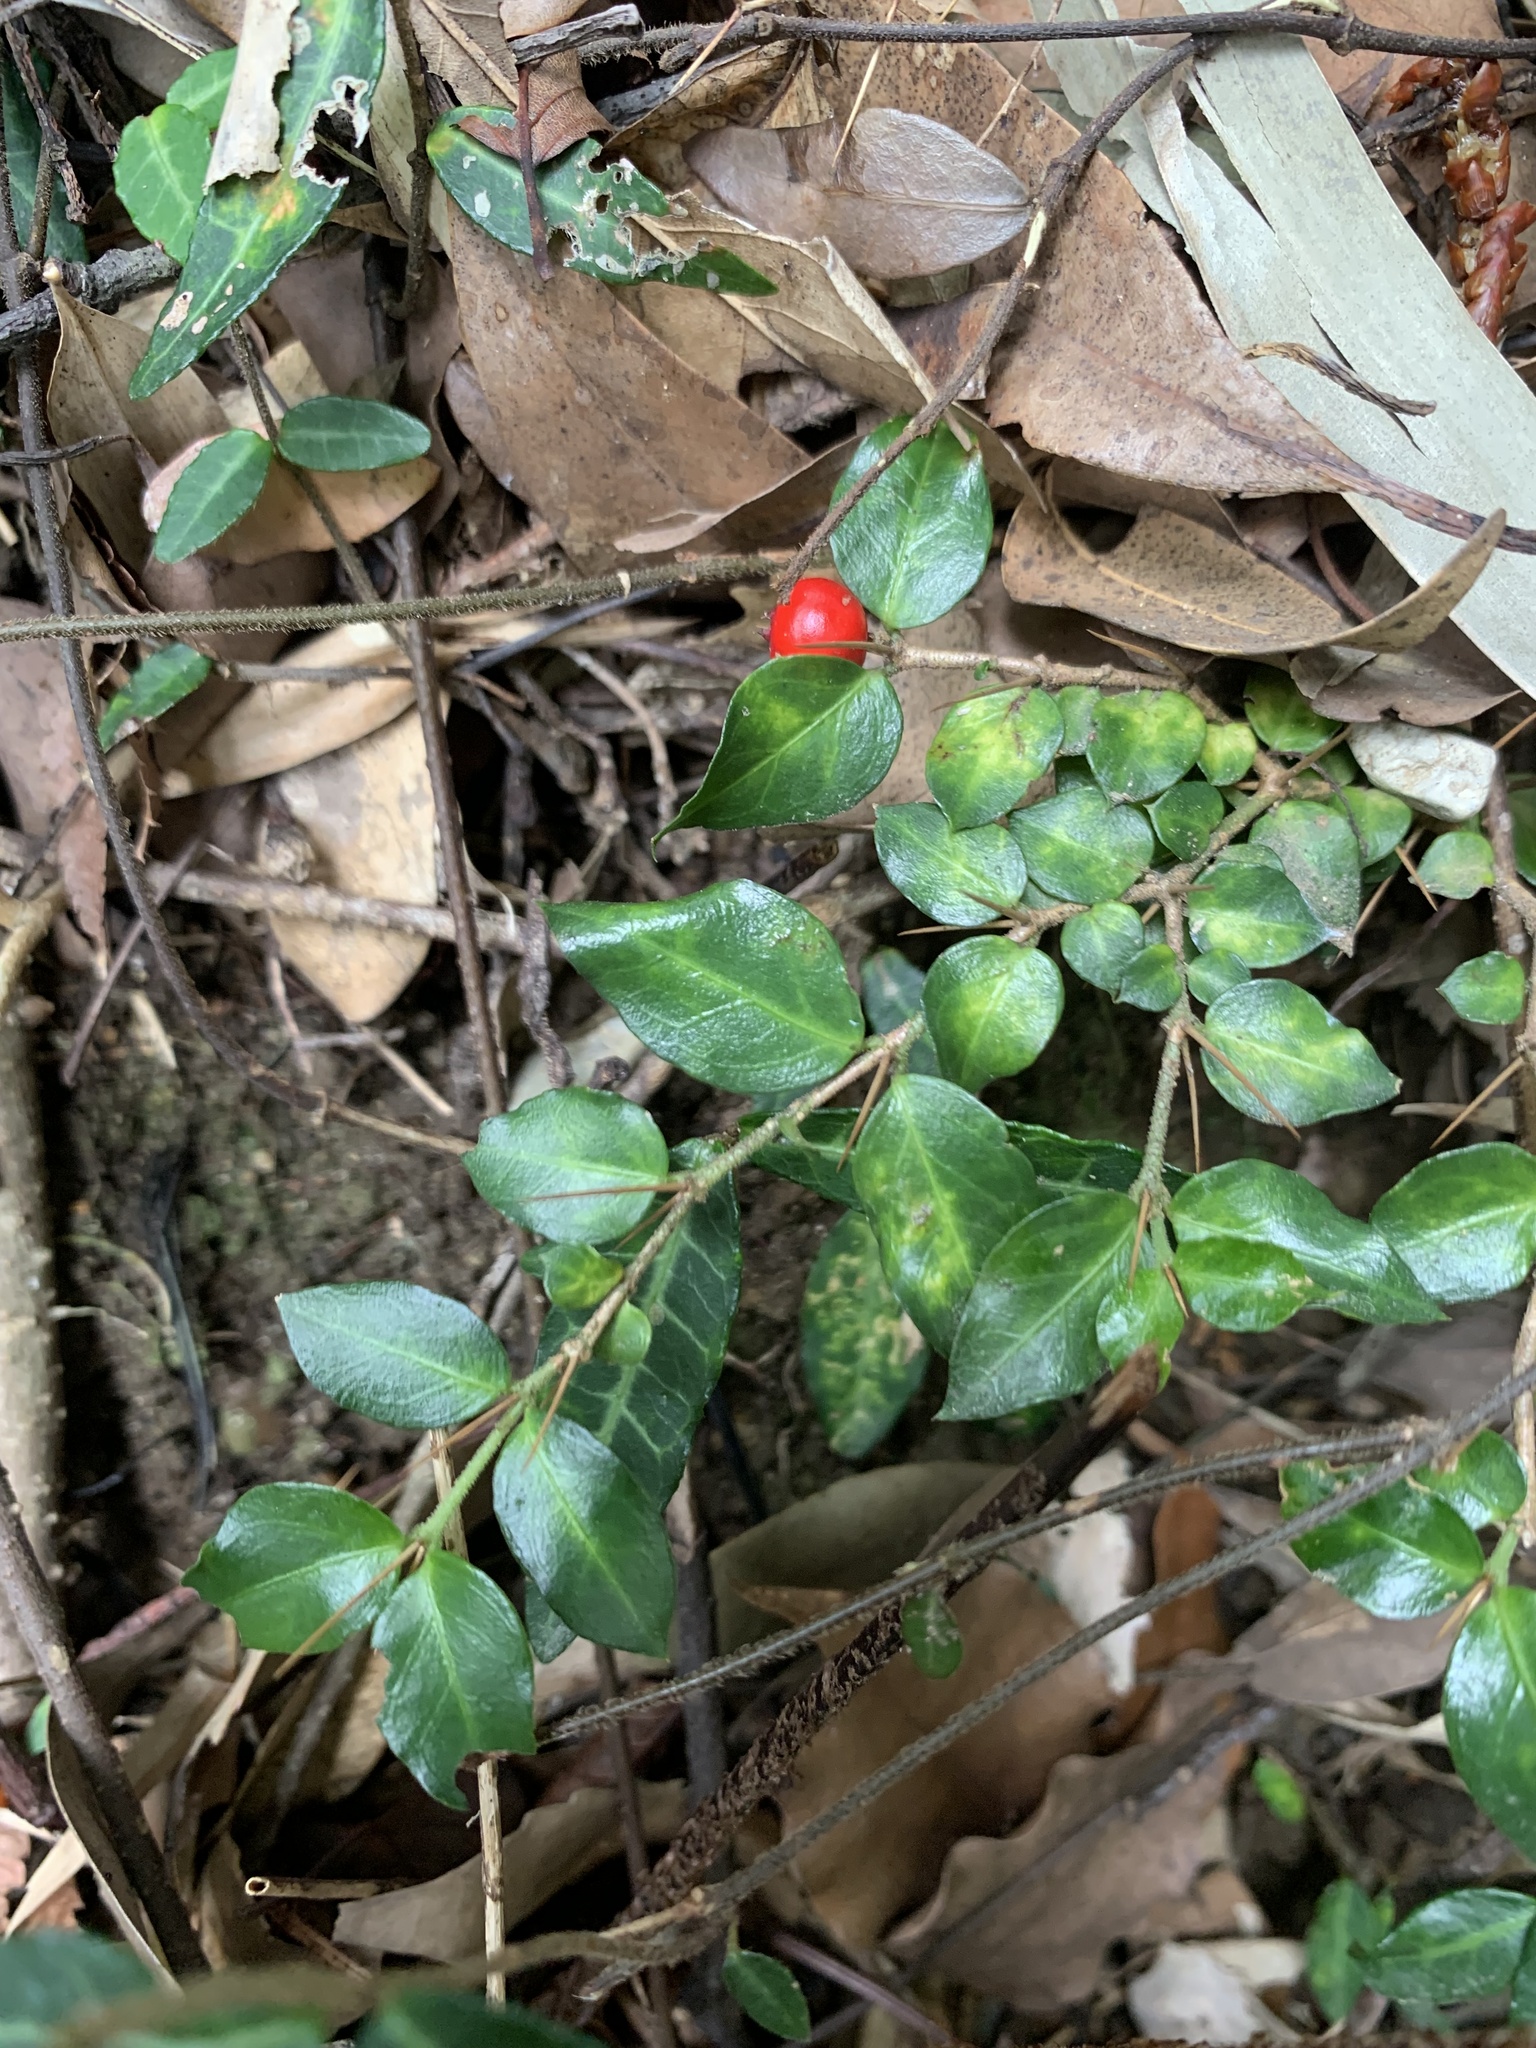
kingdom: Plantae
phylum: Tracheophyta
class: Magnoliopsida
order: Gentianales
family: Rubiaceae
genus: Damnacanthus
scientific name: Damnacanthus indicus
